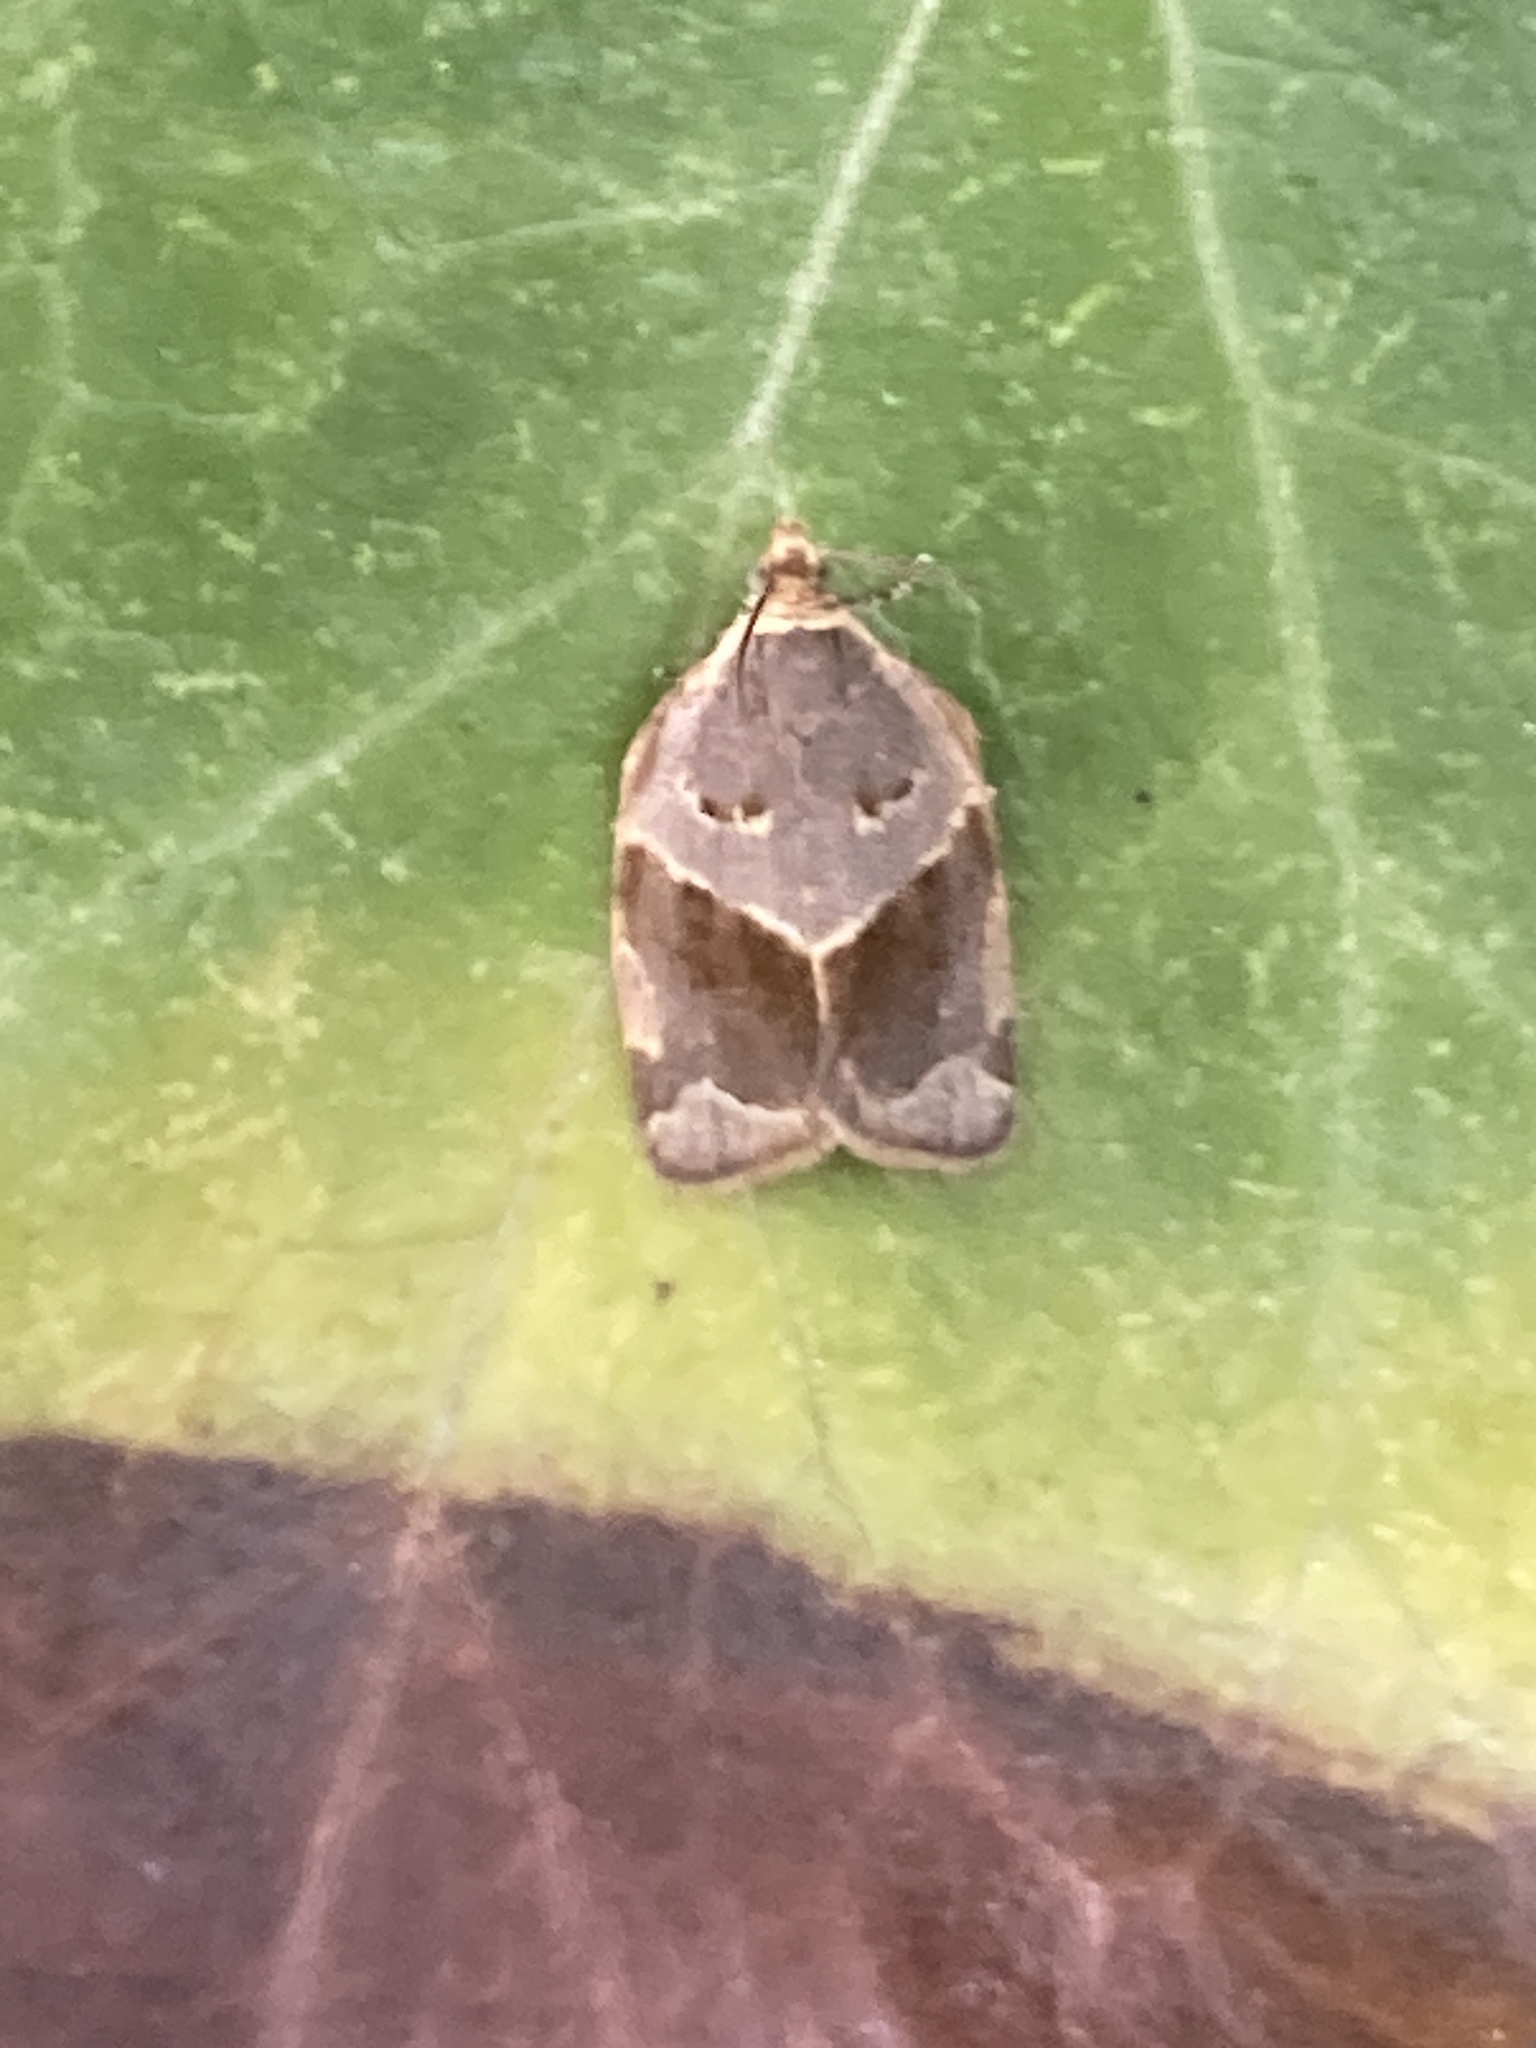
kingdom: Animalia
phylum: Arthropoda
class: Insecta
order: Lepidoptera
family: Tortricidae
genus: Clepsis
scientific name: Clepsis dumicolana
